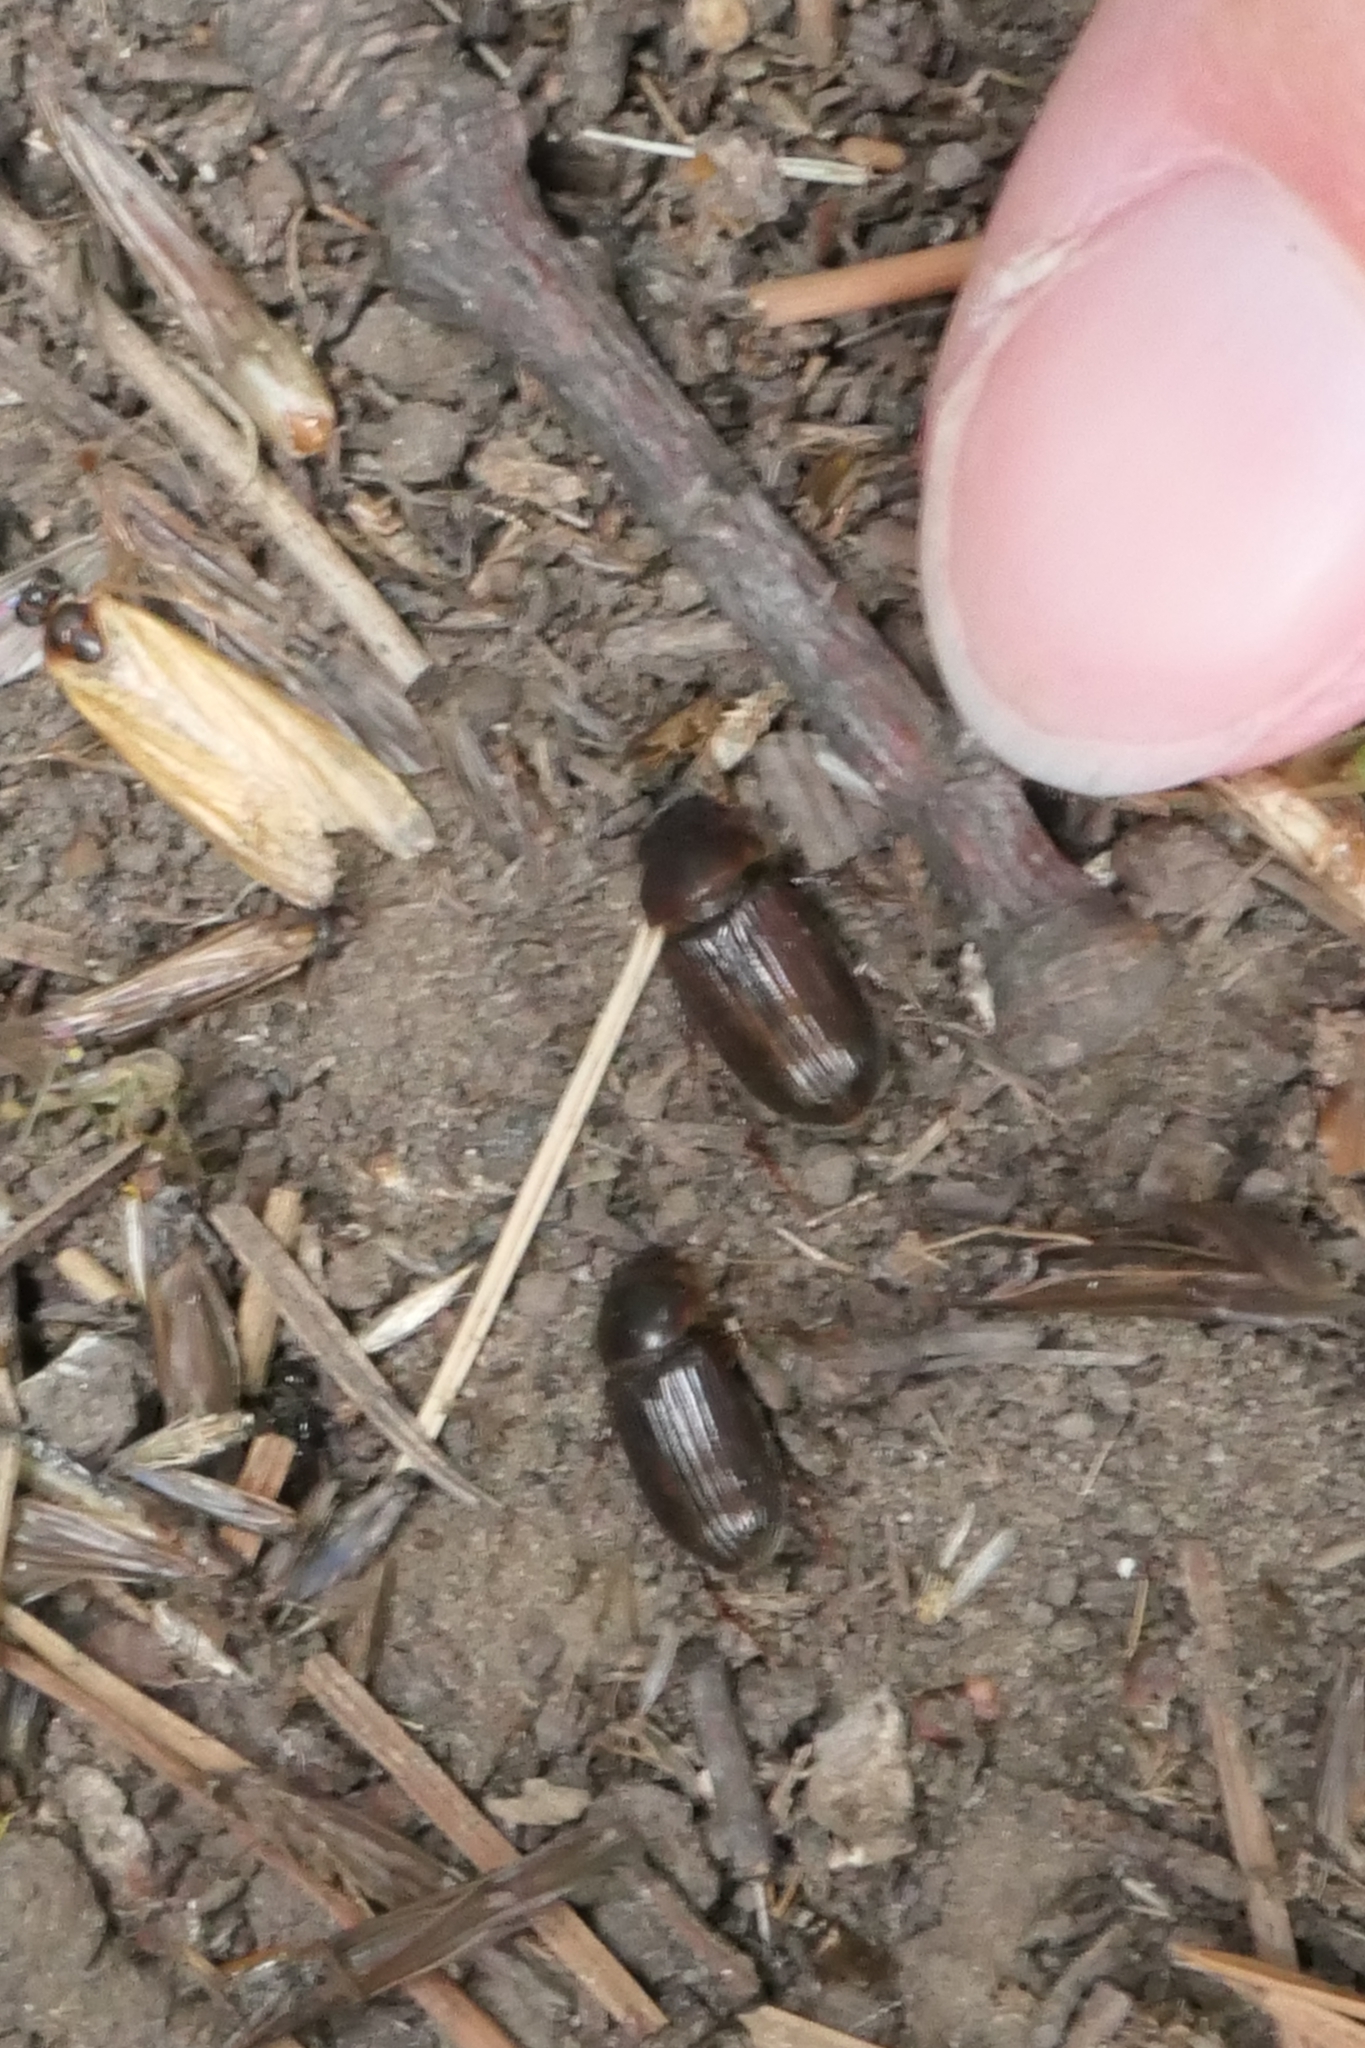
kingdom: Animalia
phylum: Arthropoda
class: Insecta
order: Coleoptera
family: Scarabaeidae
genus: Acrossidius
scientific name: Acrossidius tasmaniae
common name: Black-headed pasture cockchafer
